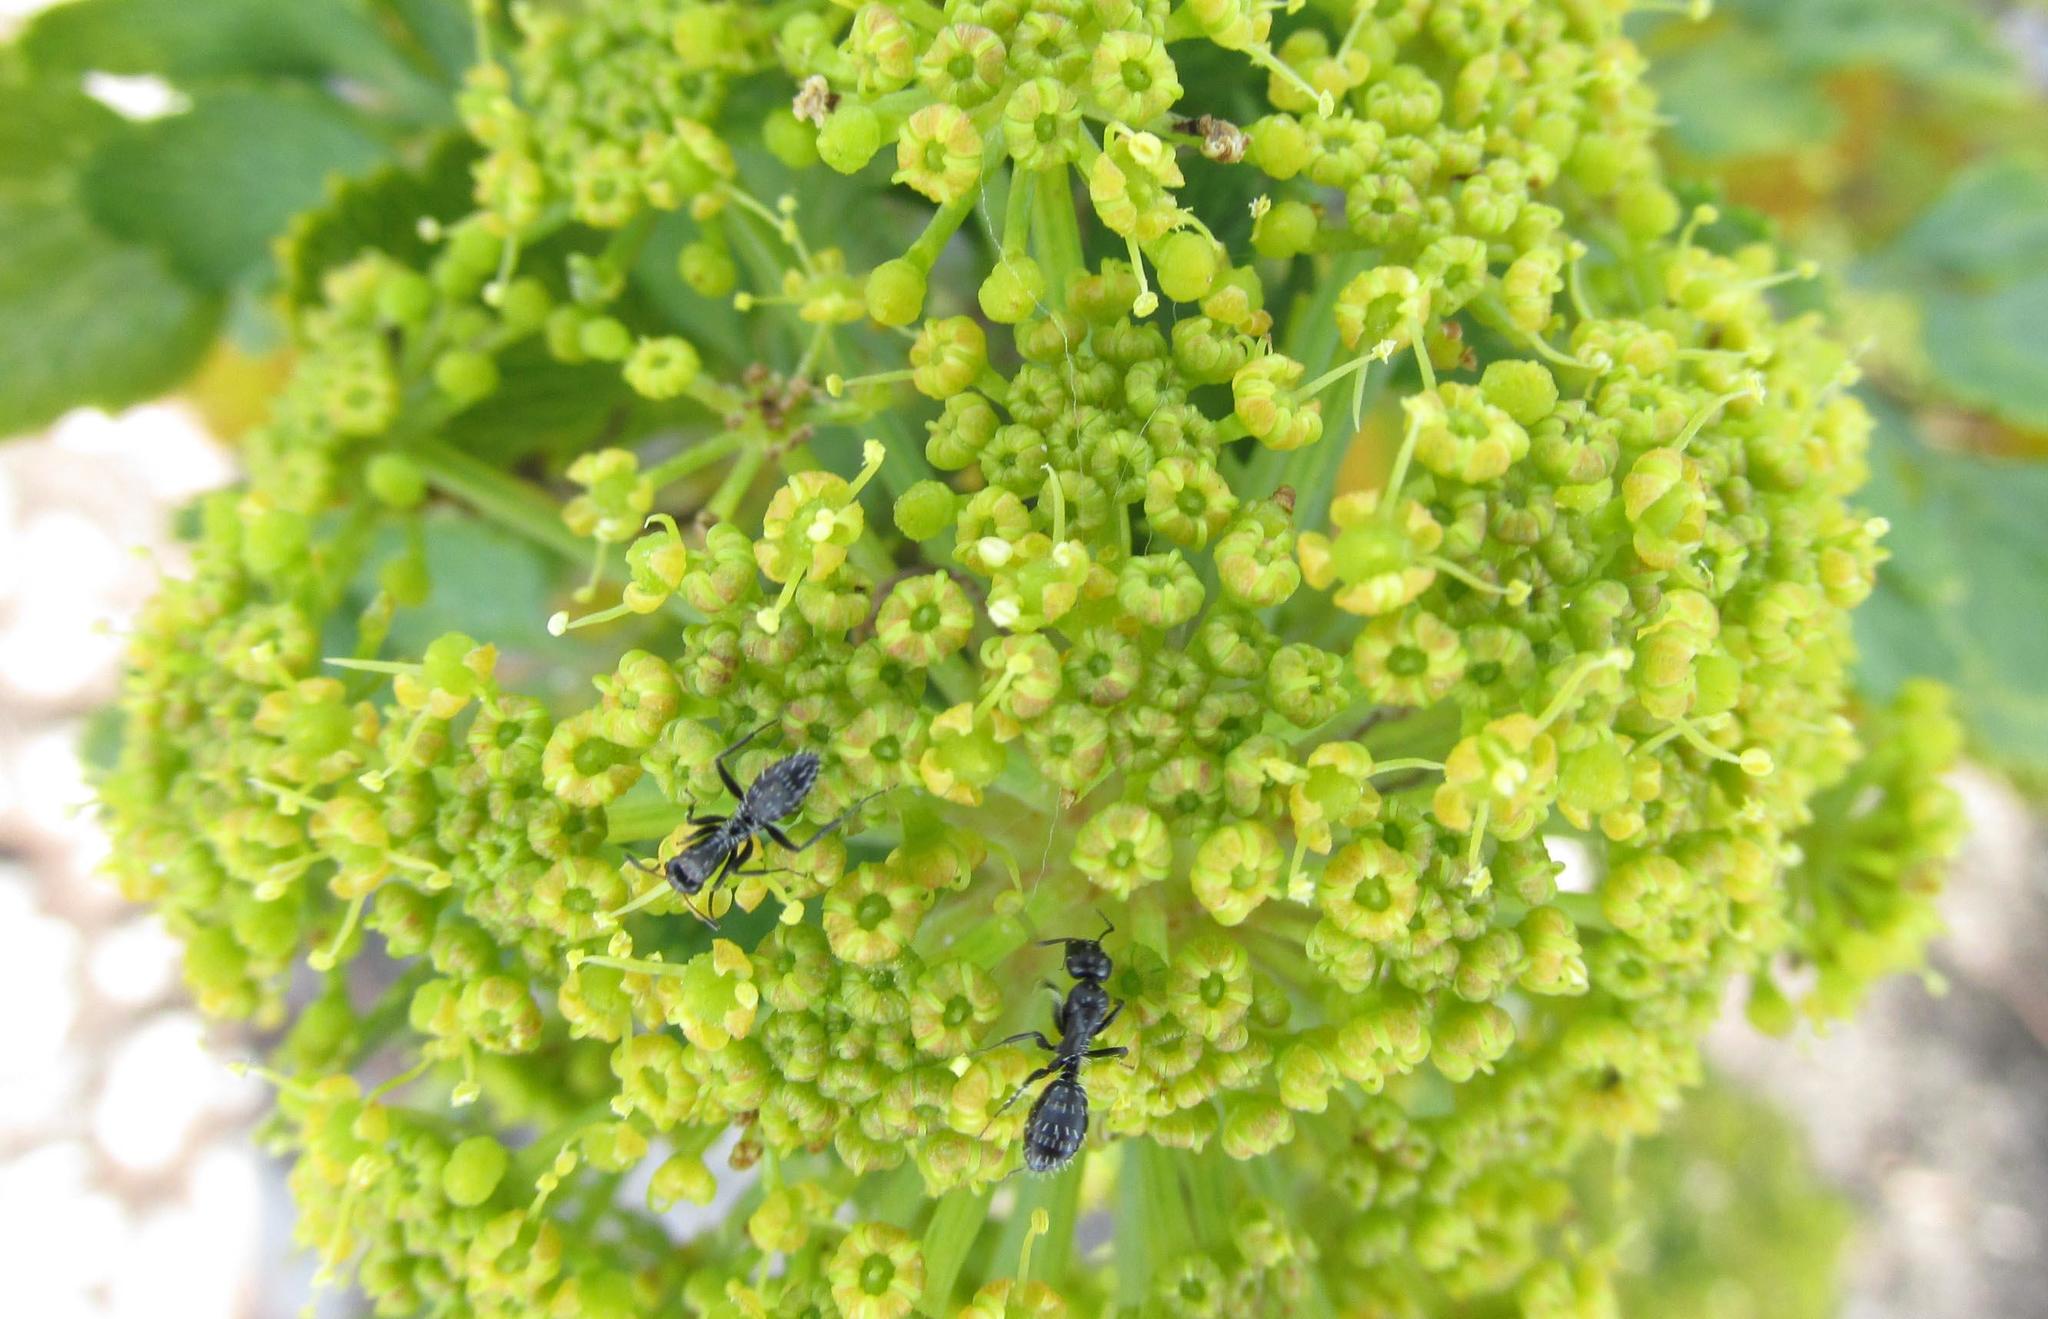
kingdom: Animalia
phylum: Arthropoda
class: Insecta
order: Hymenoptera
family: Formicidae
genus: Camponotus
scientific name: Camponotus niveosetosus
